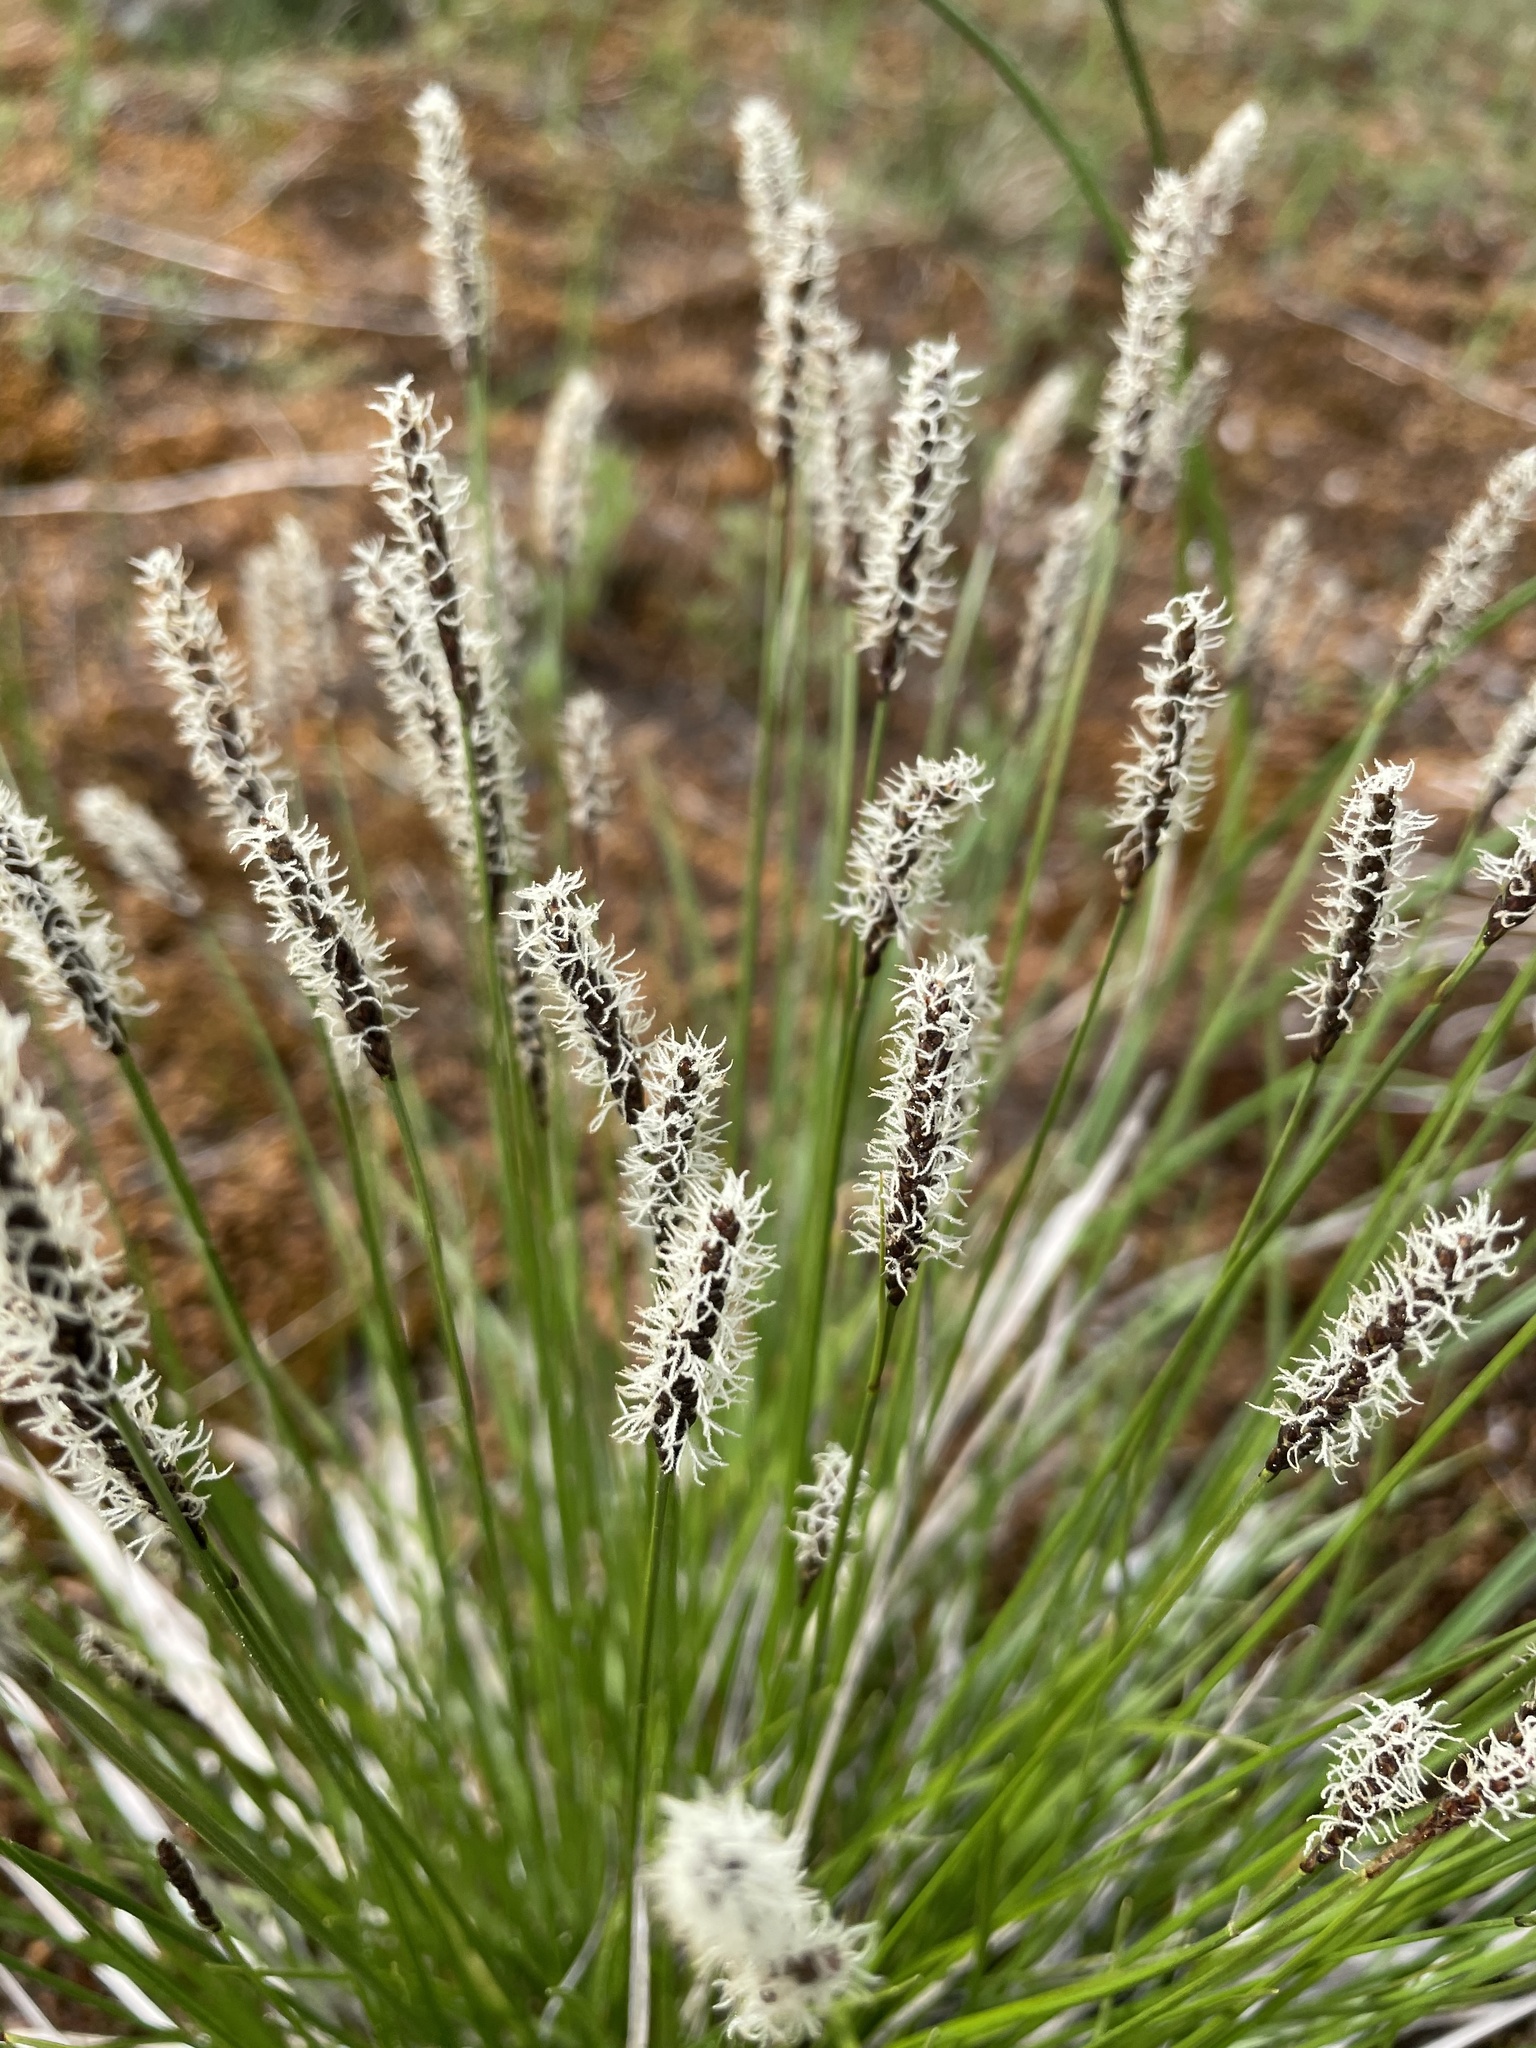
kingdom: Plantae
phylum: Tracheophyta
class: Liliopsida
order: Poales
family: Cyperaceae
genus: Carex
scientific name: Carex scirpoidea
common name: Canada single-spike sedge
